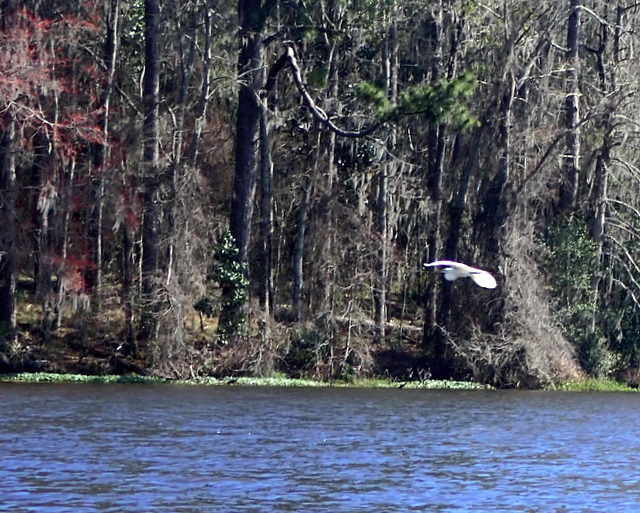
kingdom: Animalia
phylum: Chordata
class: Aves
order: Pelecaniformes
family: Ardeidae
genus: Ardea
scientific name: Ardea alba
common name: Great egret
